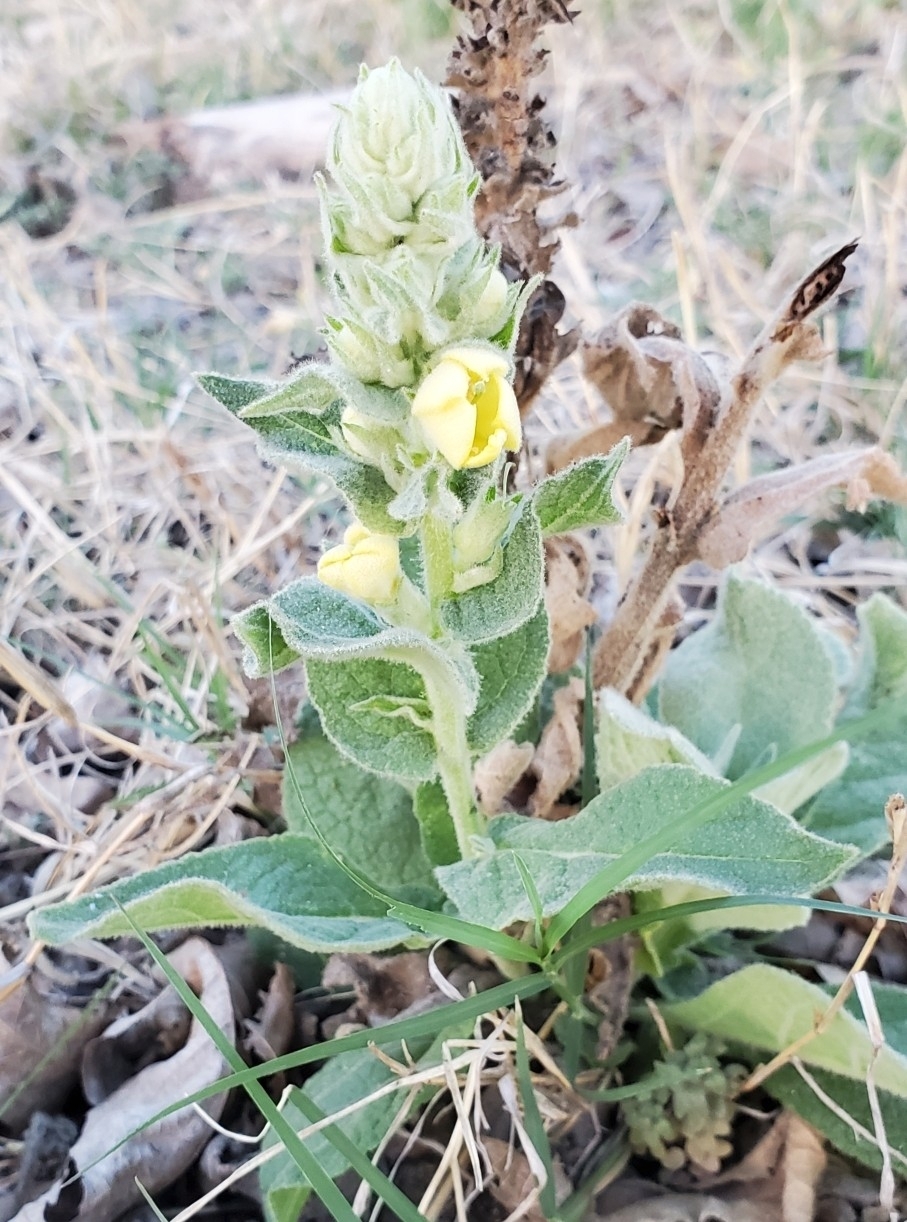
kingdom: Plantae
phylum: Tracheophyta
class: Magnoliopsida
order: Lamiales
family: Scrophulariaceae
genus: Verbascum
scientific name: Verbascum thapsus
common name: Common mullein
